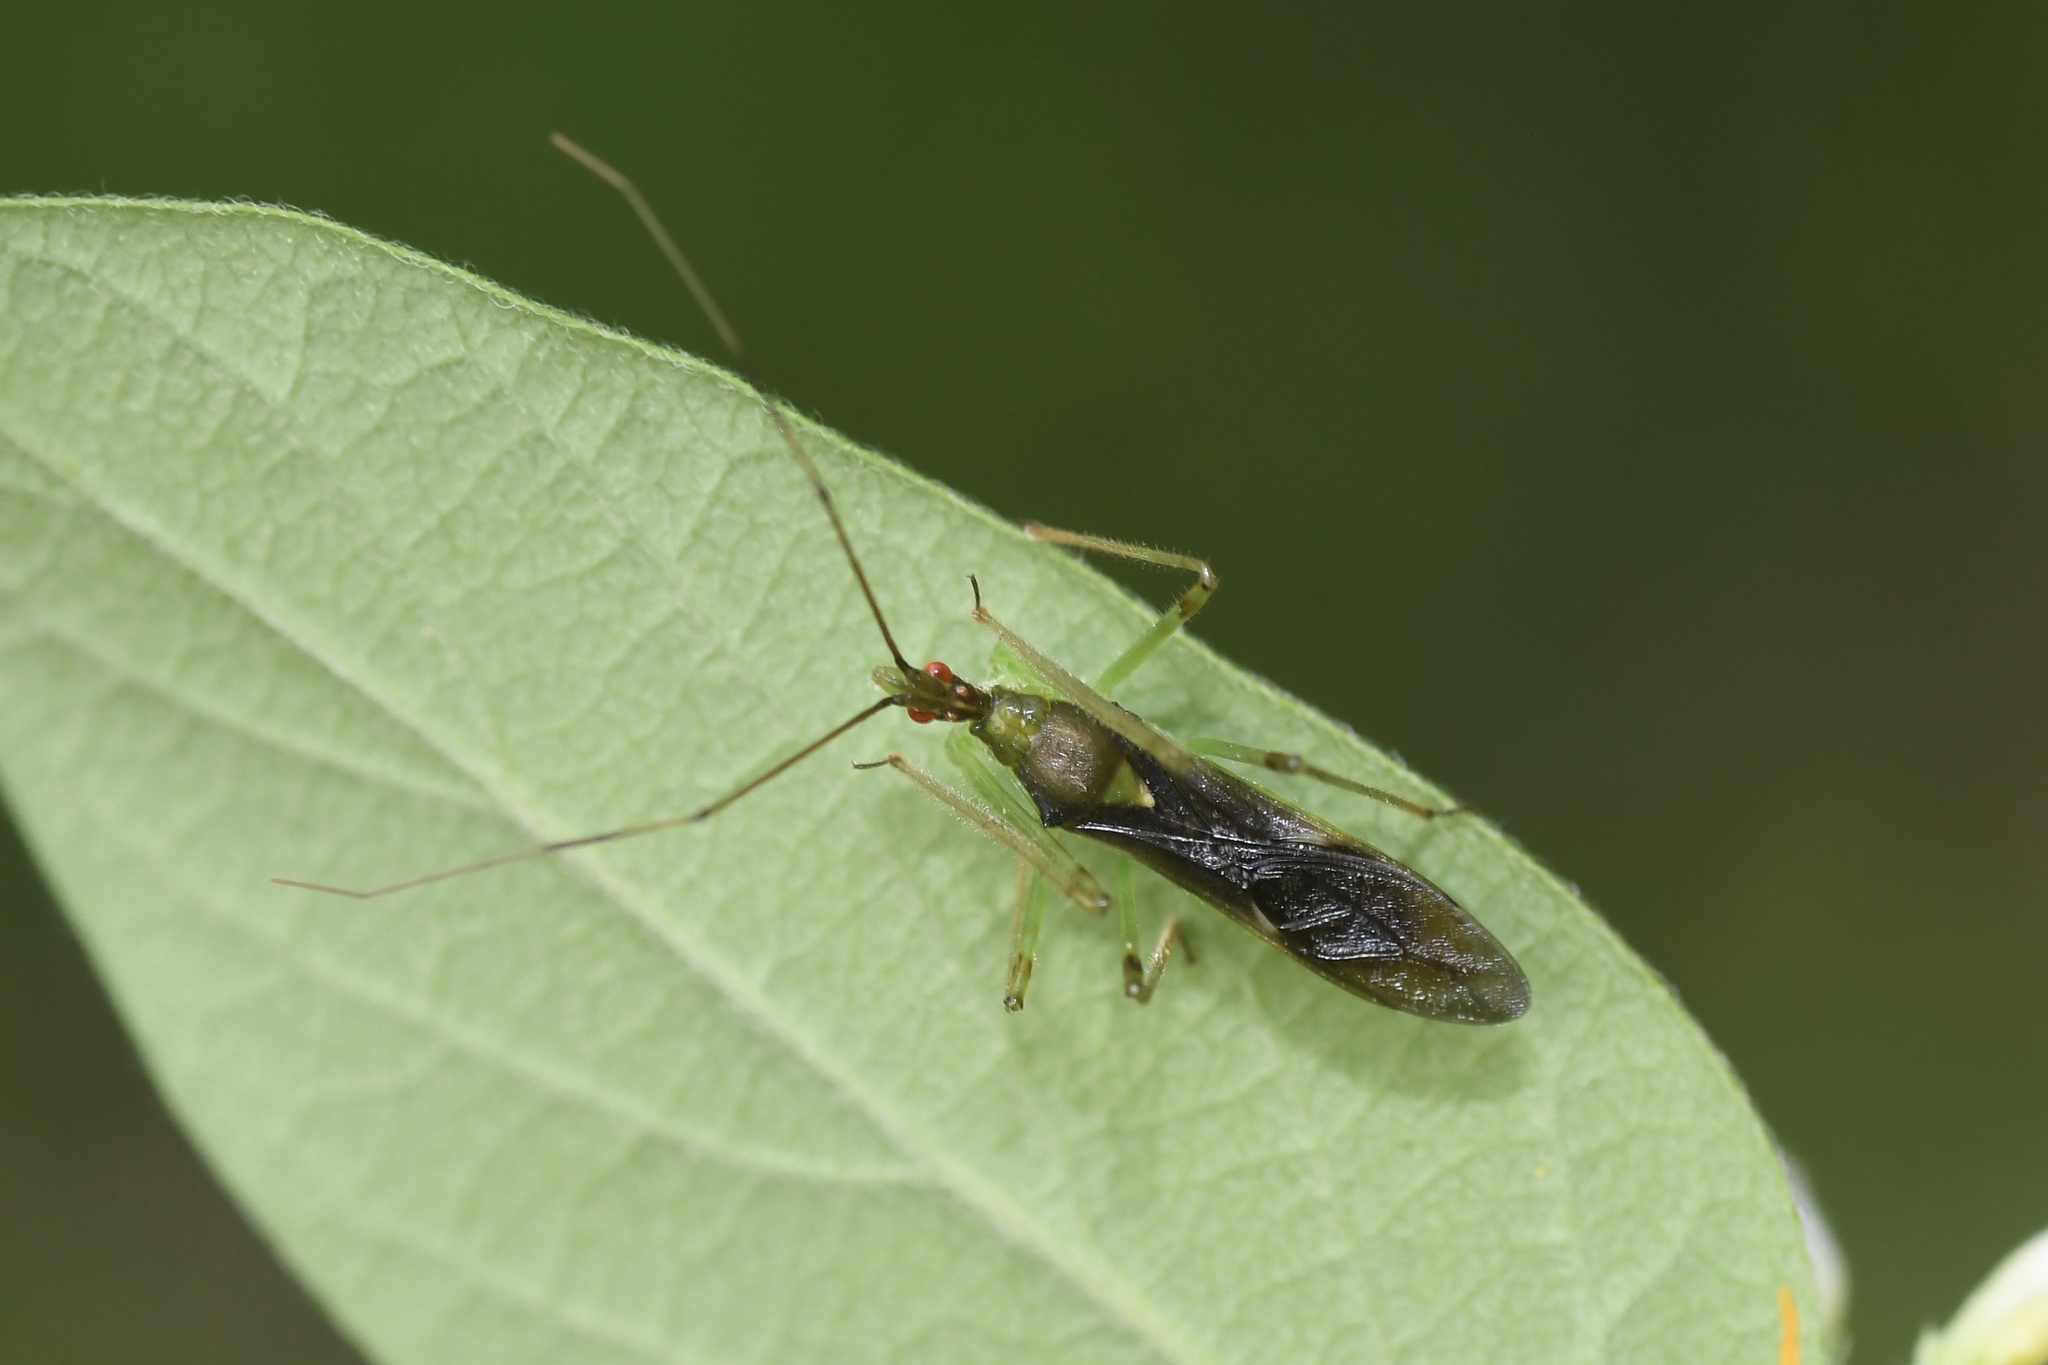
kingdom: Animalia
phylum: Arthropoda
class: Insecta
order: Hemiptera
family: Reduviidae
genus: Zelus
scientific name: Zelus luridus
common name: Pale green assassin bug
